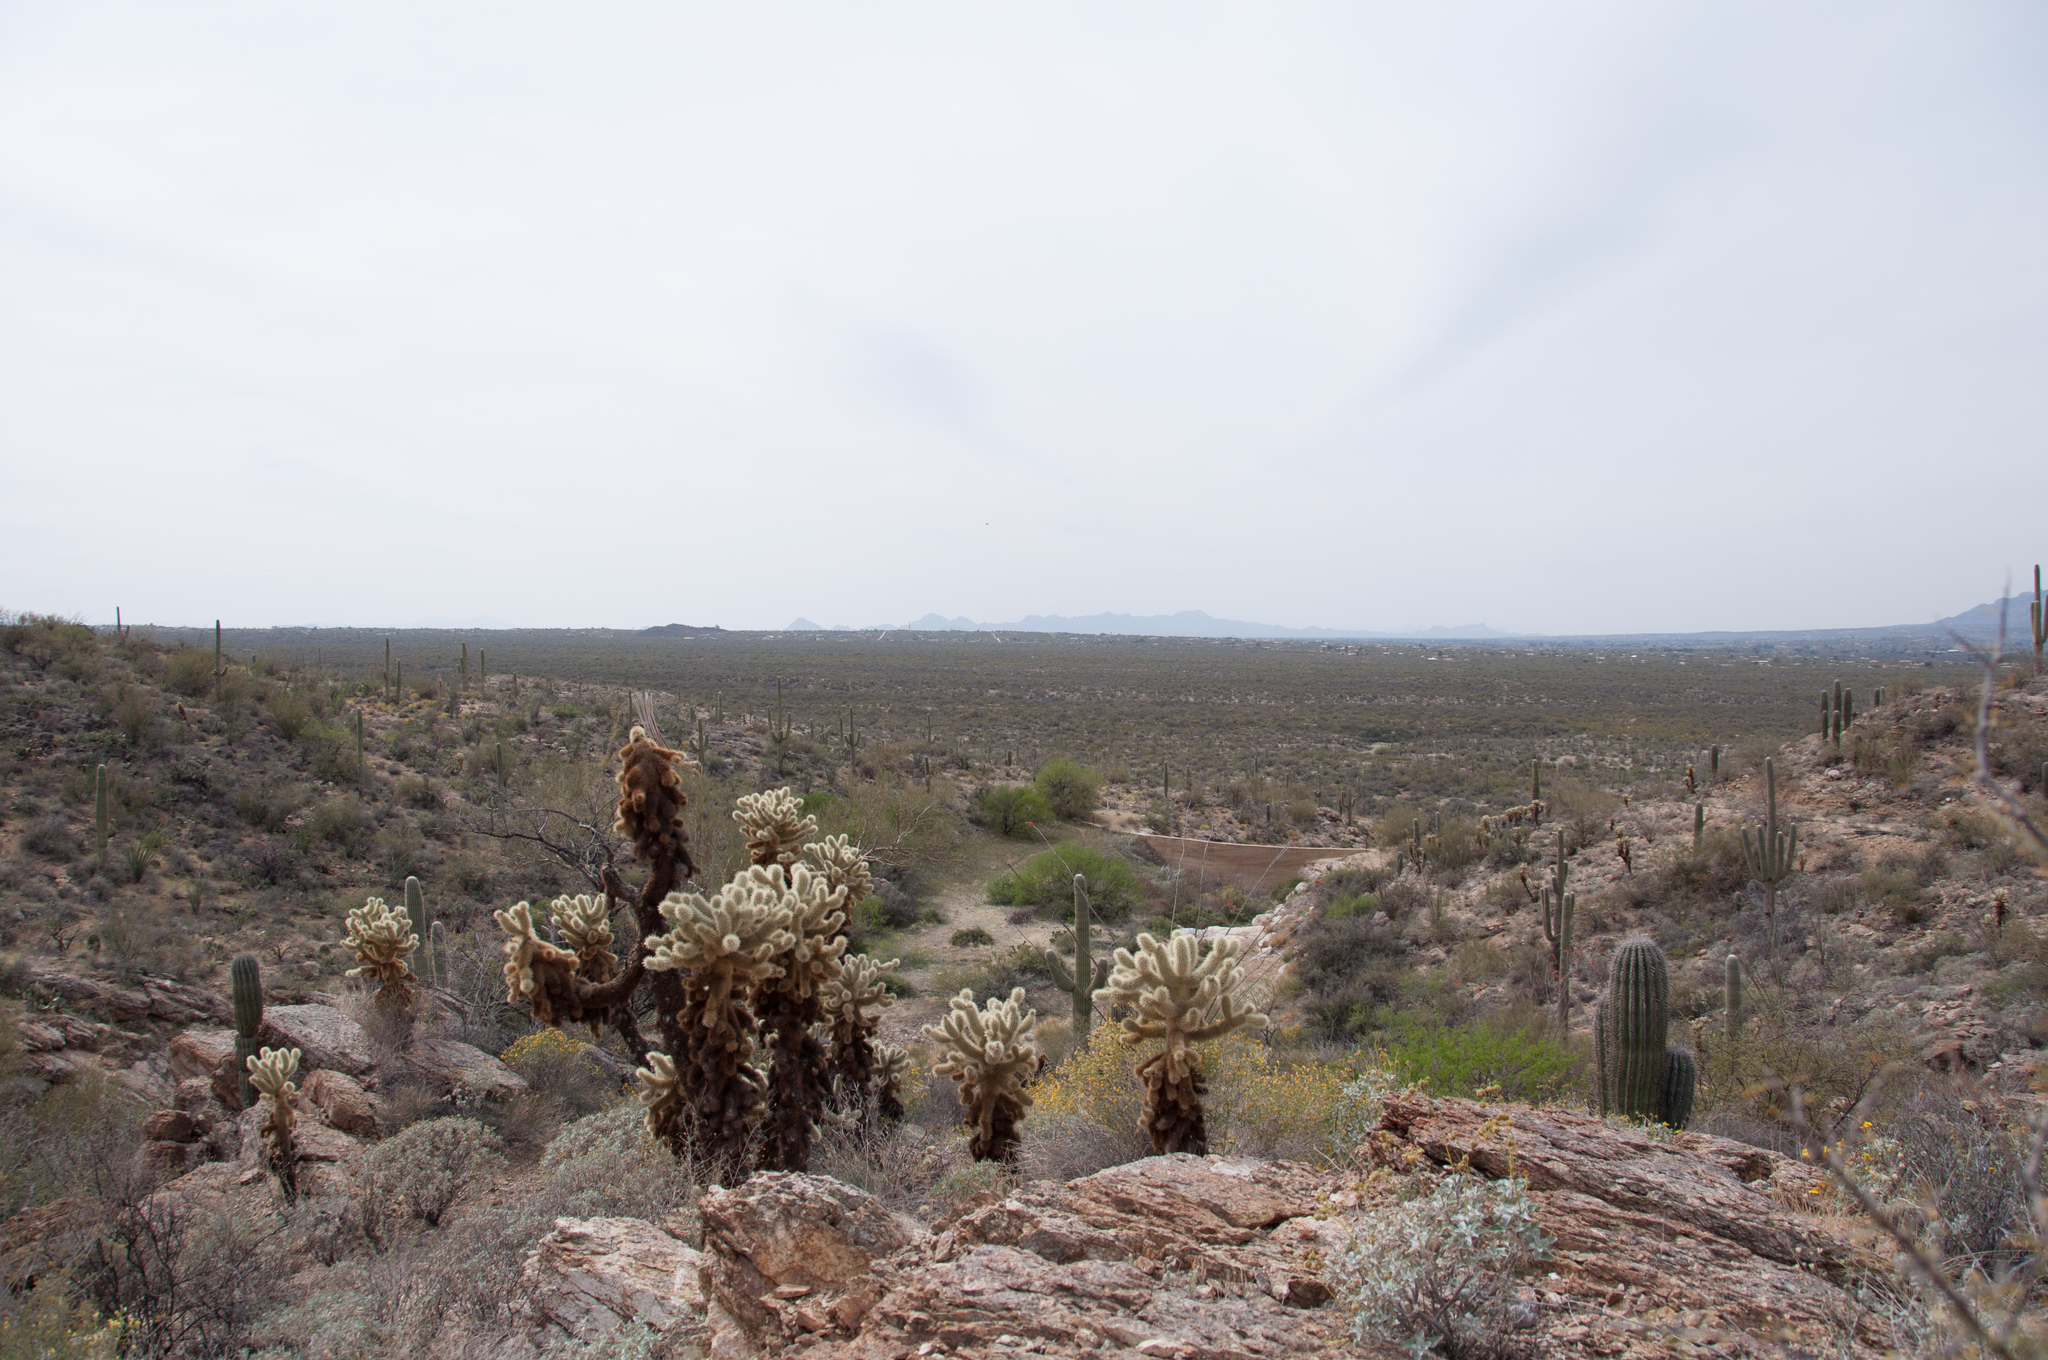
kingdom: Plantae
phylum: Tracheophyta
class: Magnoliopsida
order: Caryophyllales
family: Cactaceae
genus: Cylindropuntia
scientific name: Cylindropuntia fosbergii
